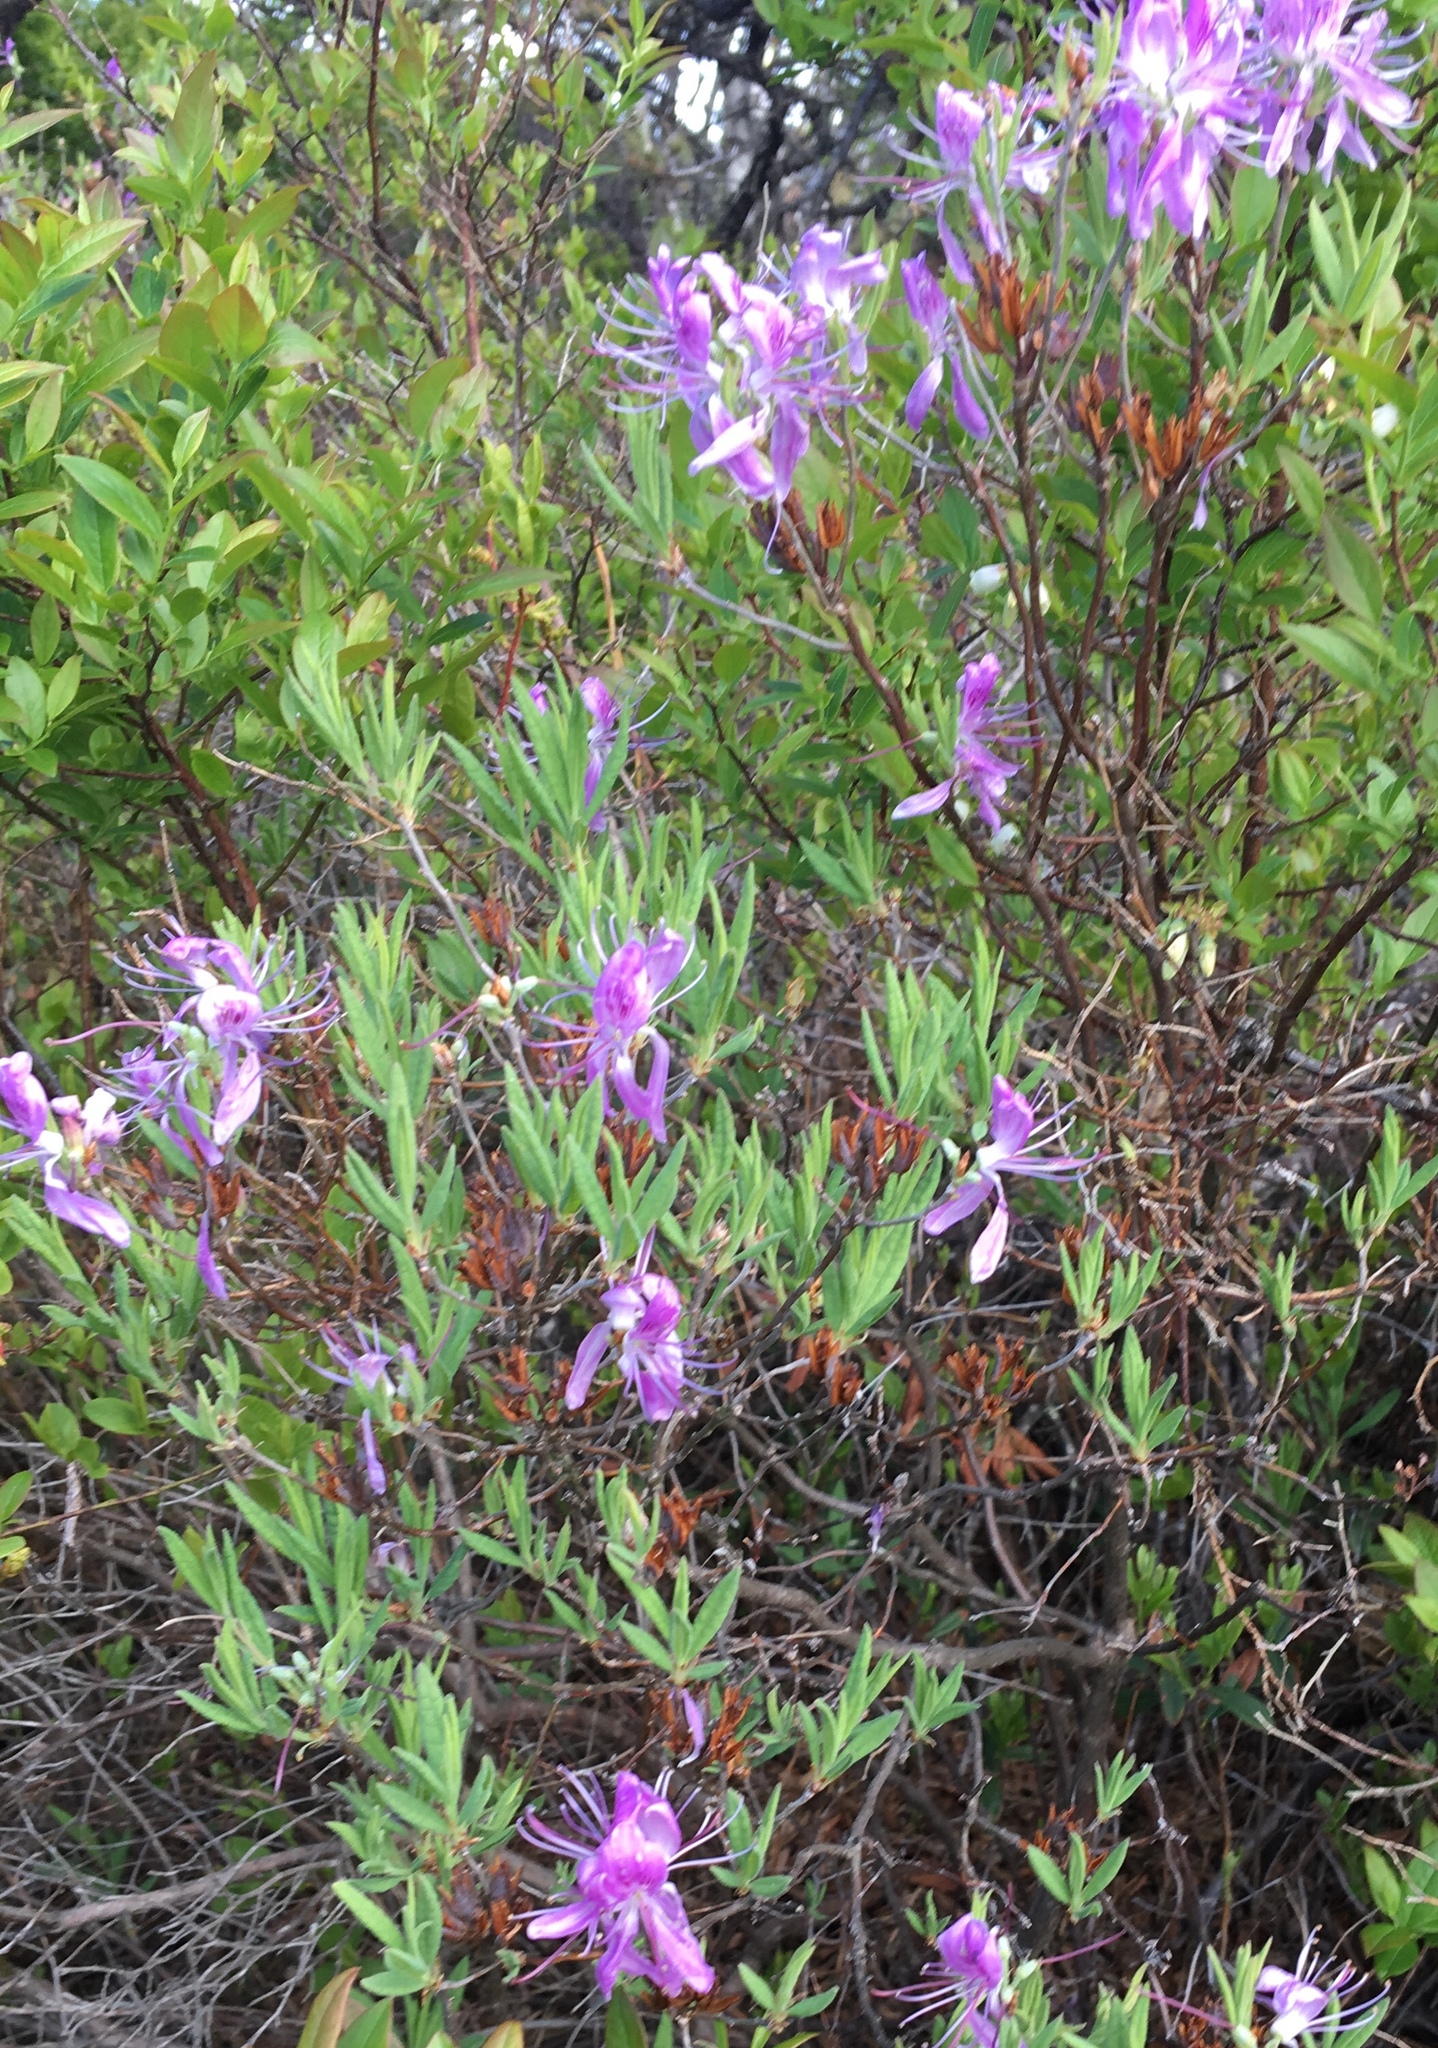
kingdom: Plantae
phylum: Tracheophyta
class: Magnoliopsida
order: Ericales
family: Ericaceae
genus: Rhododendron
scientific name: Rhododendron canadense
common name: Rhodora
